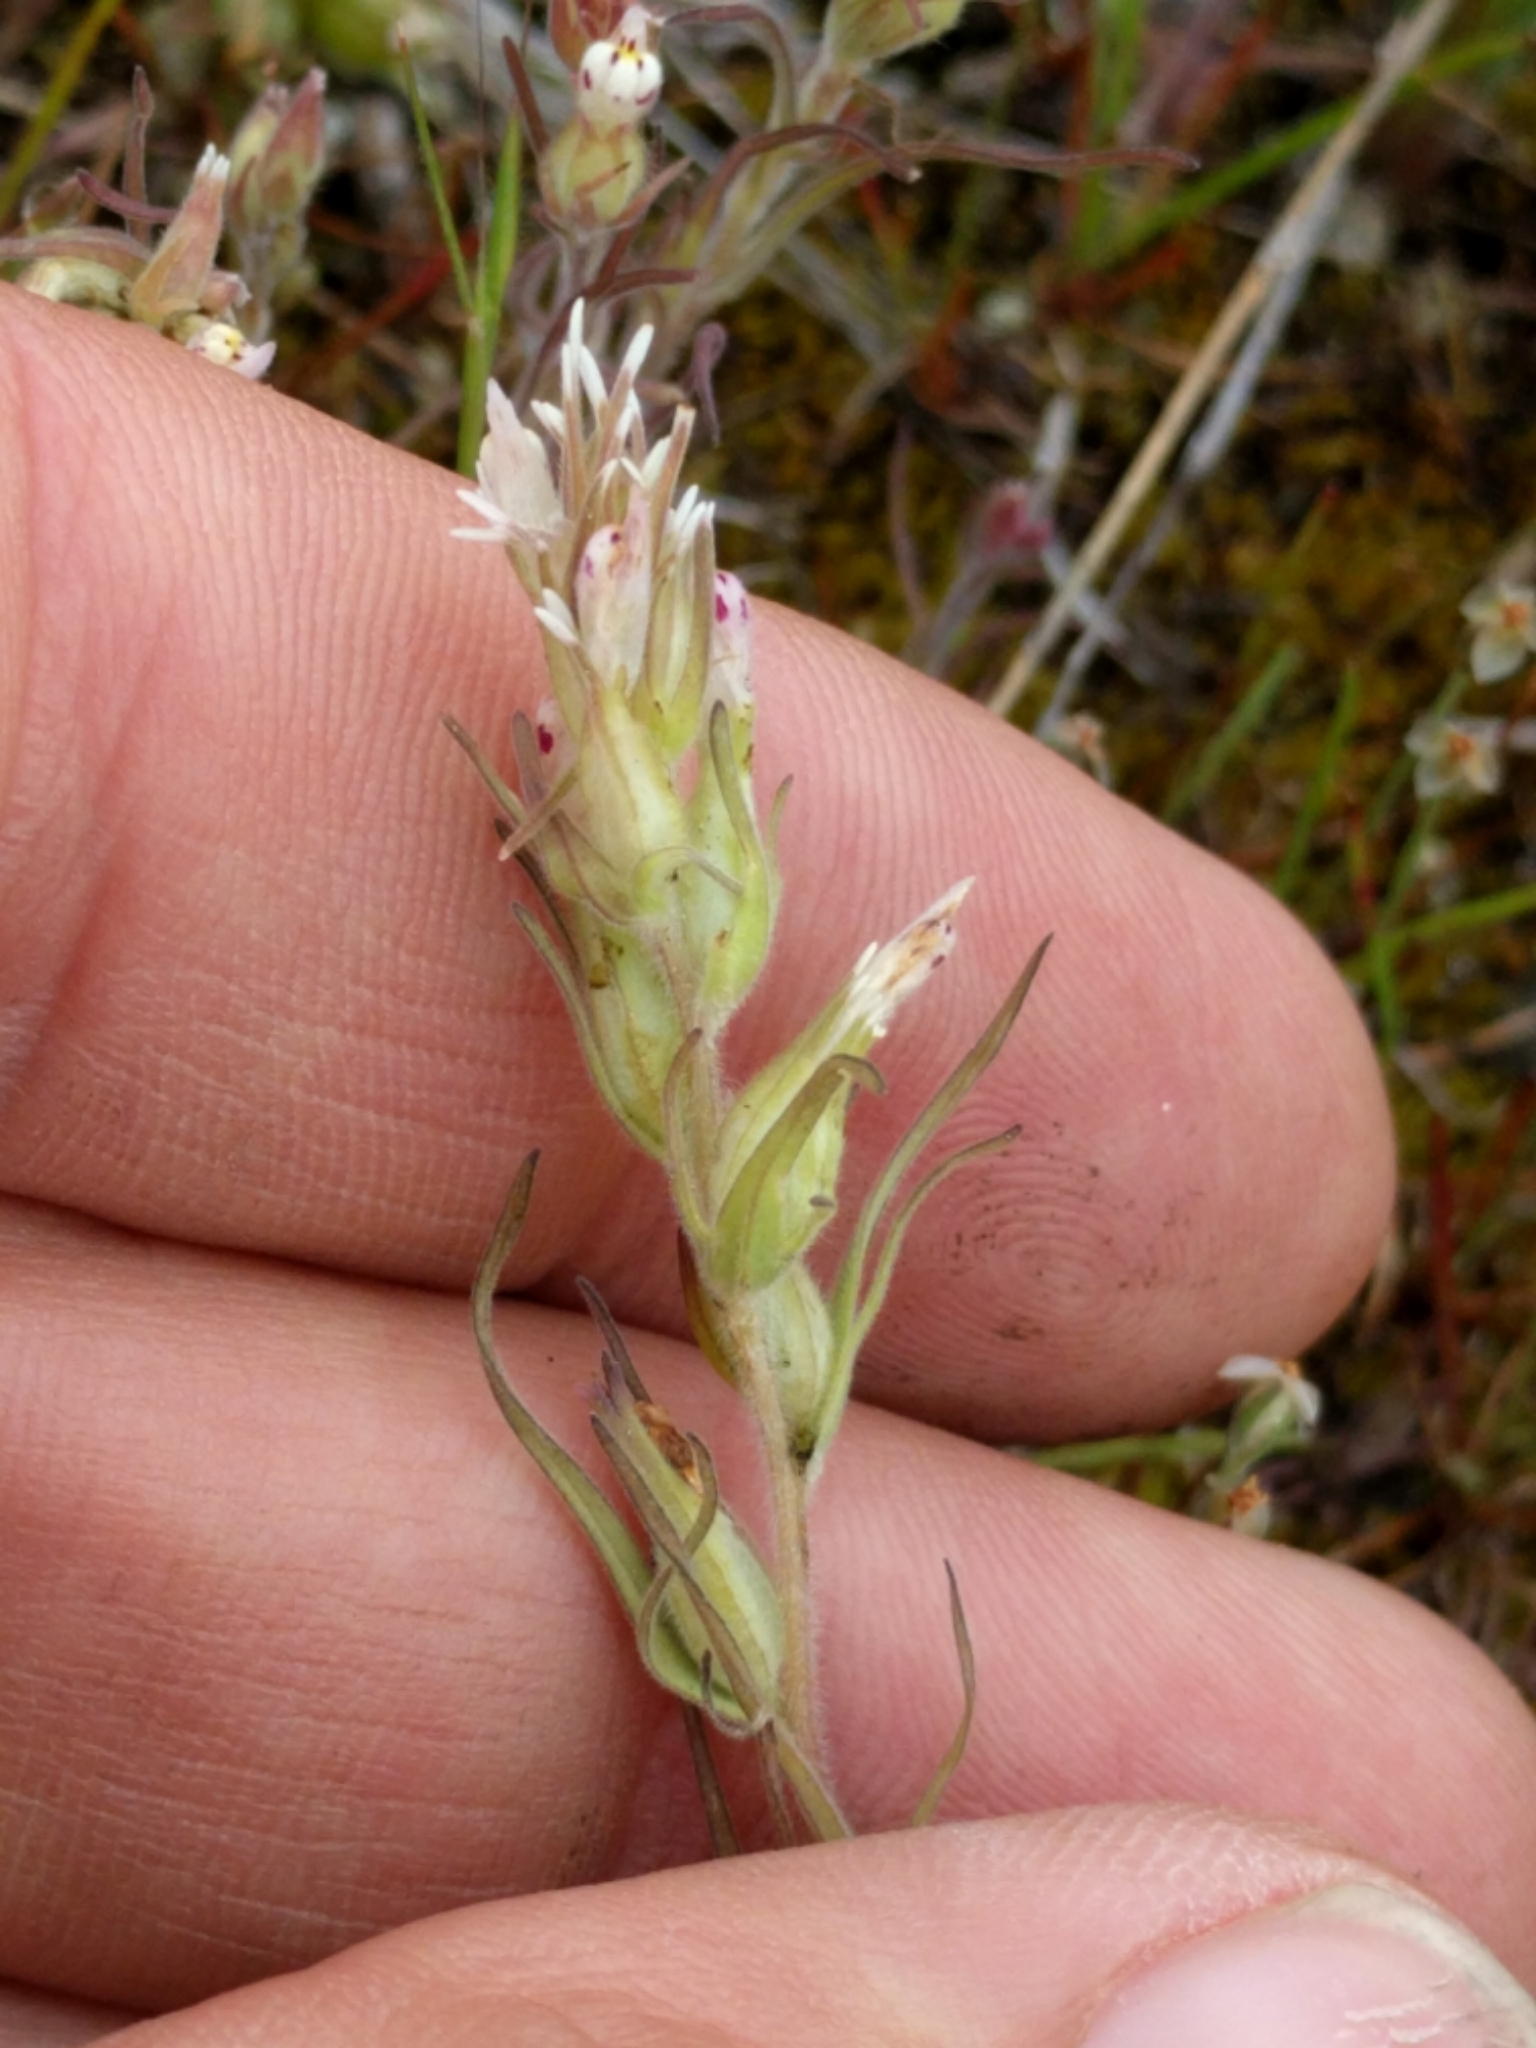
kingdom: Plantae
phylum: Tracheophyta
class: Magnoliopsida
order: Lamiales
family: Orobanchaceae
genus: Castilleja
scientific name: Castilleja attenuata
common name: Valley tassels
